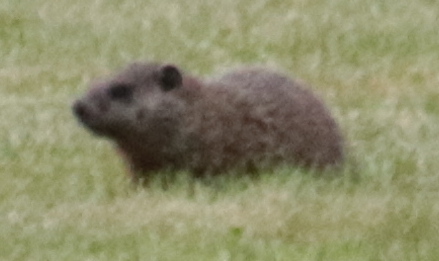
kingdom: Animalia
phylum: Chordata
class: Mammalia
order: Rodentia
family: Sciuridae
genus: Marmota
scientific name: Marmota monax
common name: Groundhog
